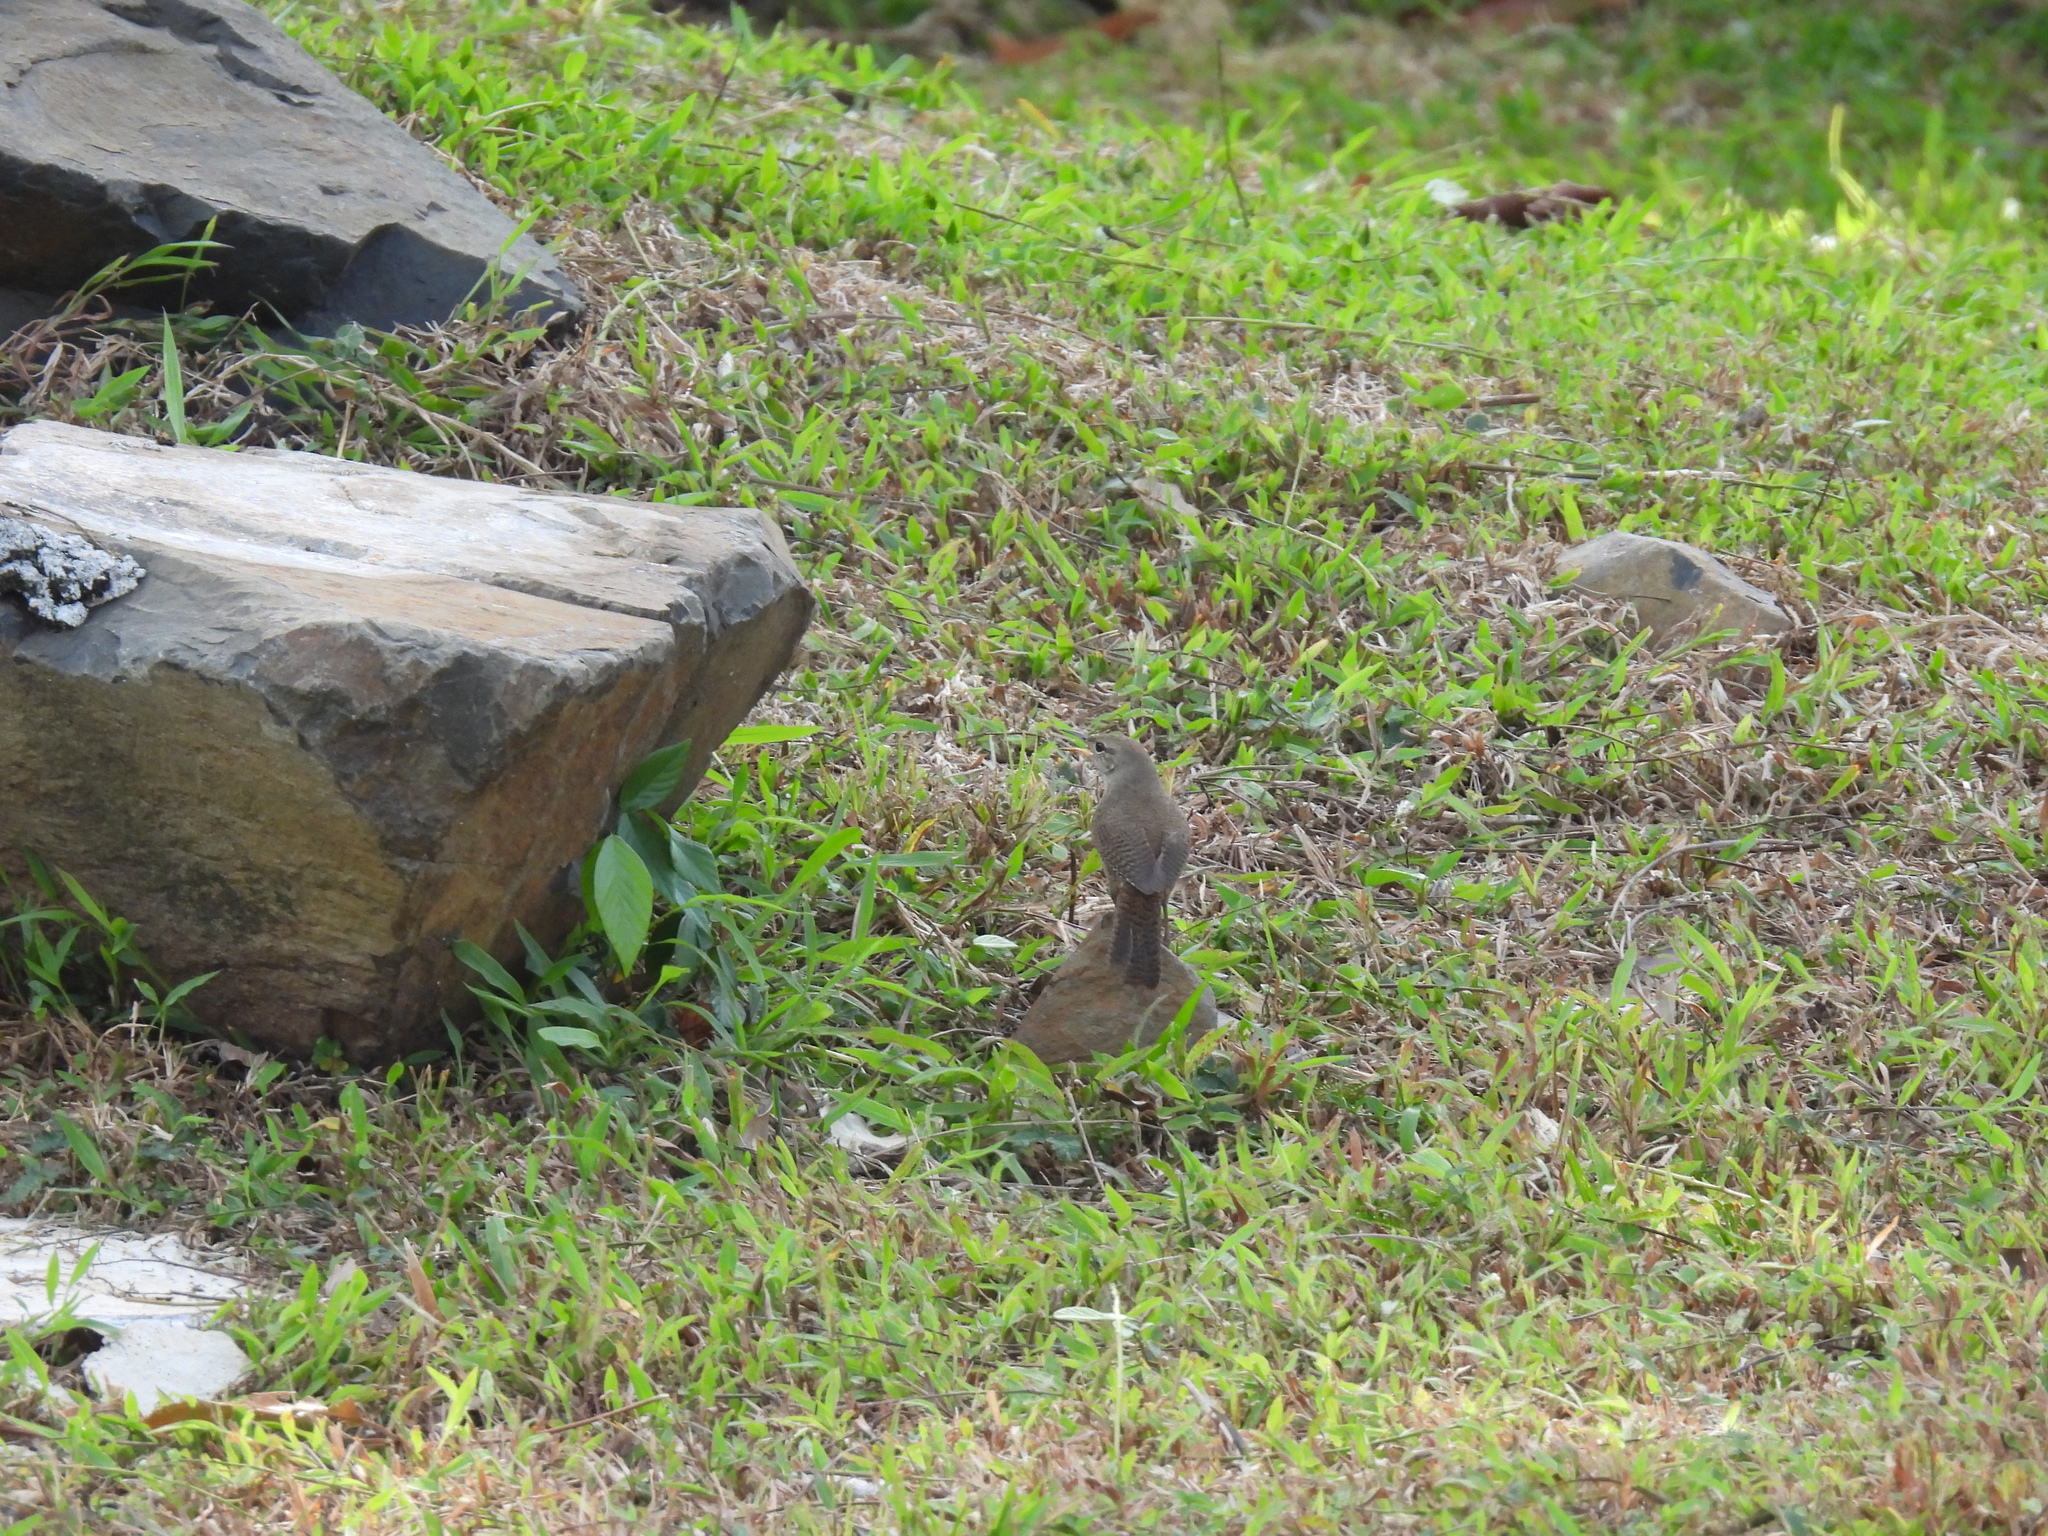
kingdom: Animalia
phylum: Chordata
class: Aves
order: Passeriformes
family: Troglodytidae
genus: Troglodytes
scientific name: Troglodytes aedon
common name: House wren
